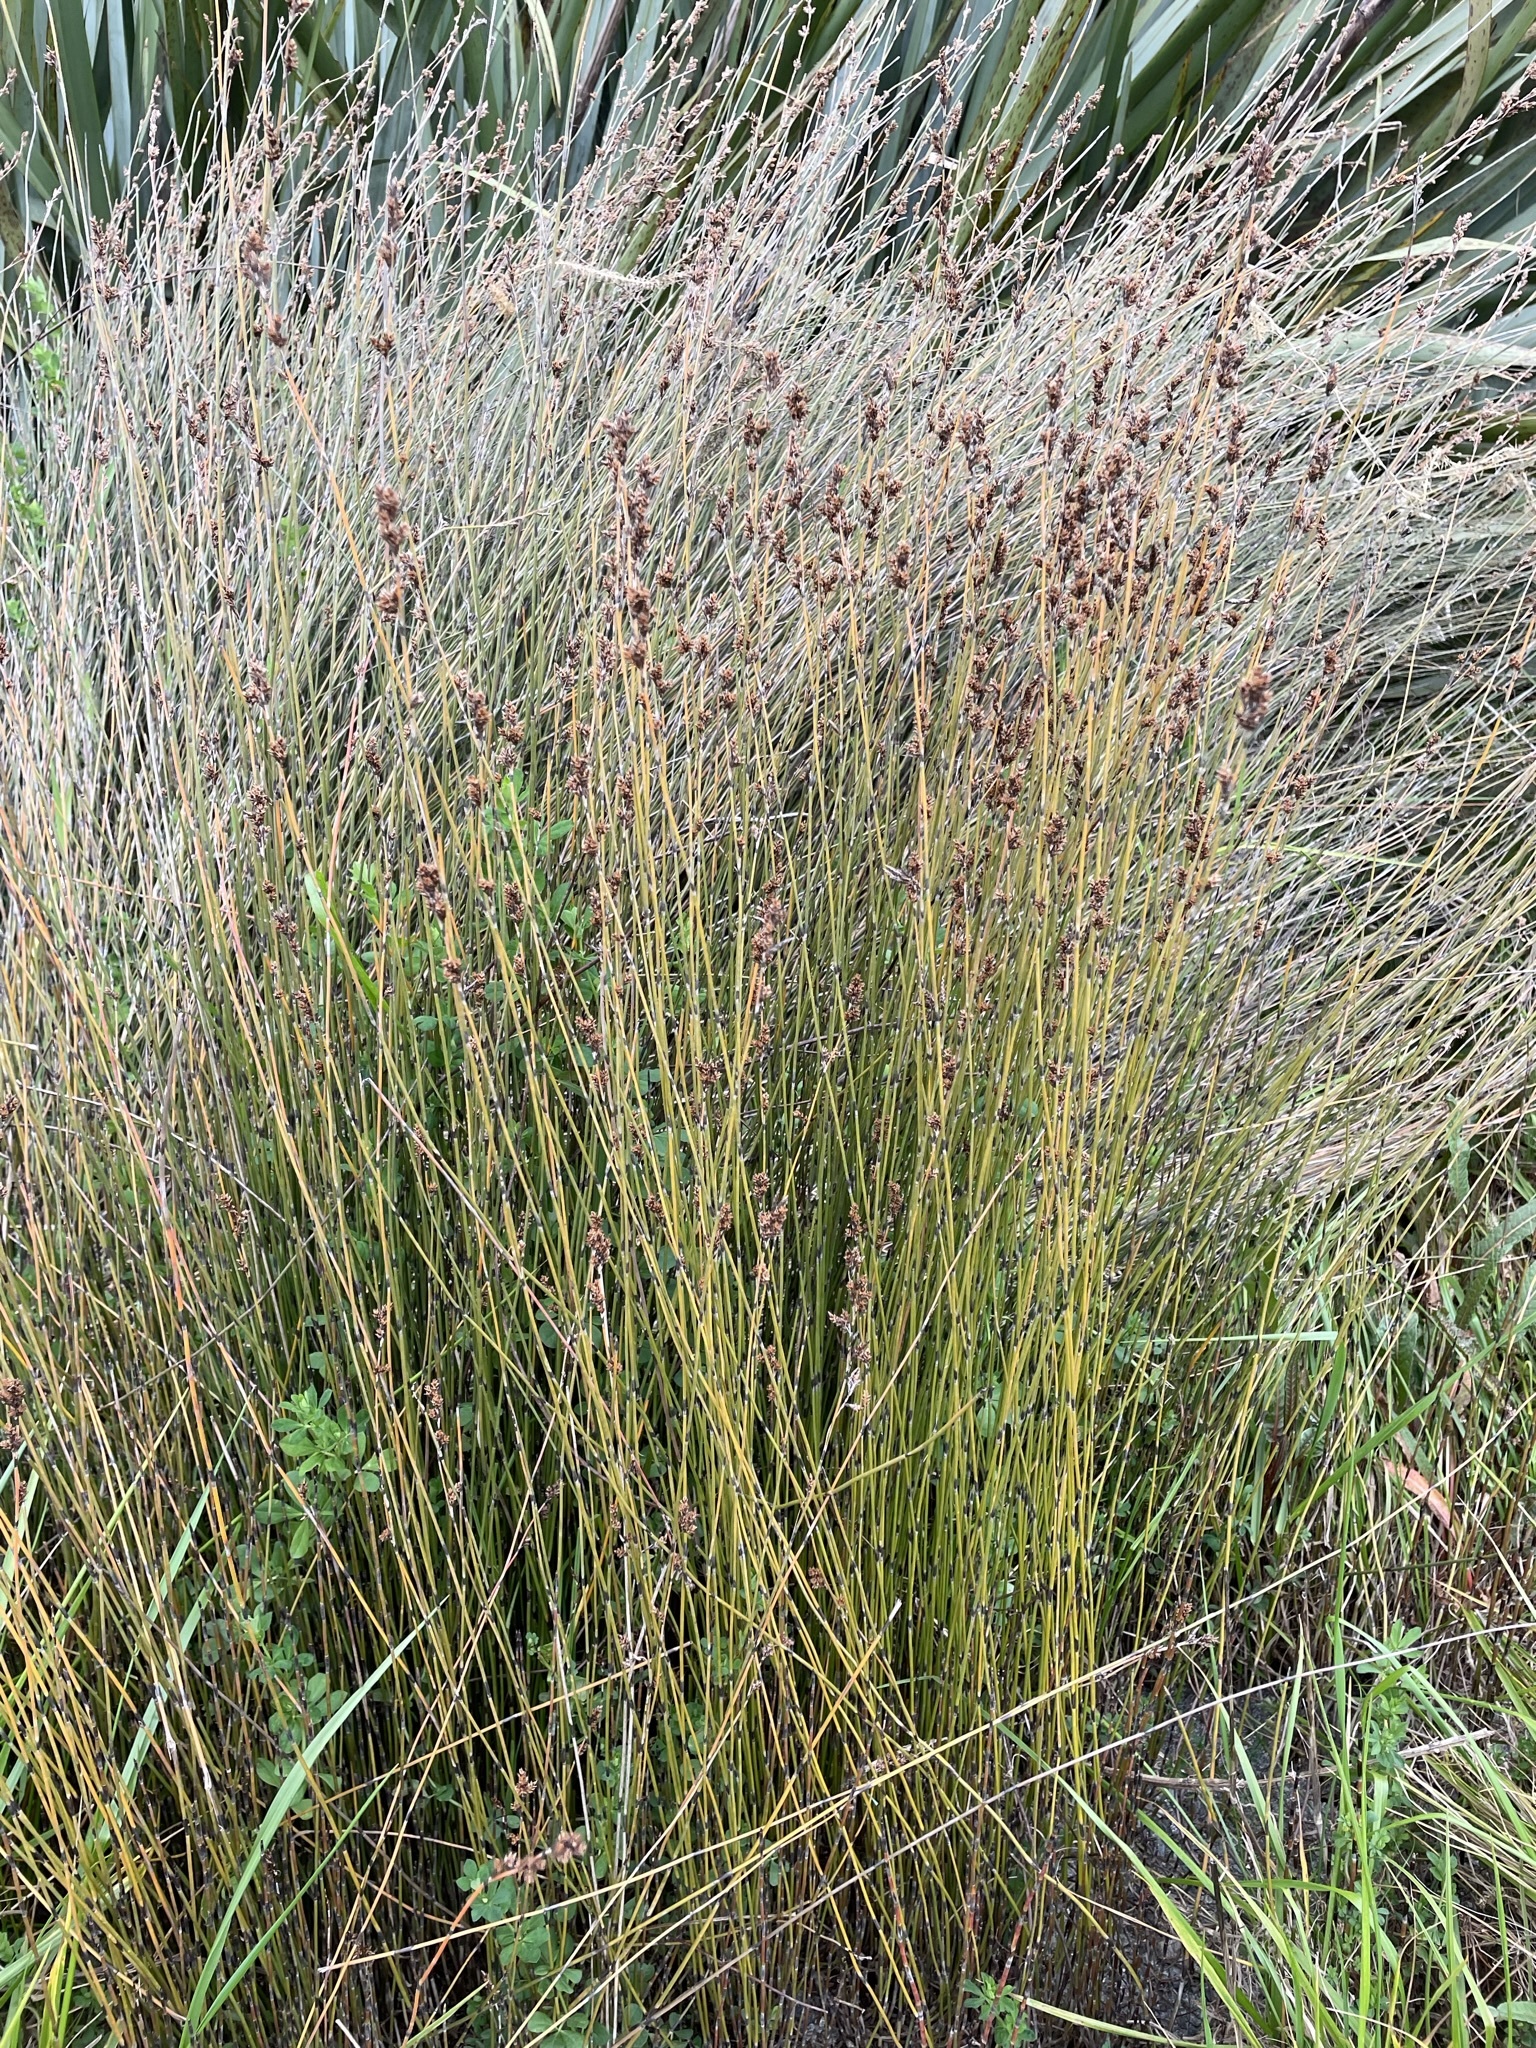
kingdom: Plantae
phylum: Tracheophyta
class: Liliopsida
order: Poales
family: Restionaceae
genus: Apodasmia
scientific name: Apodasmia similis
